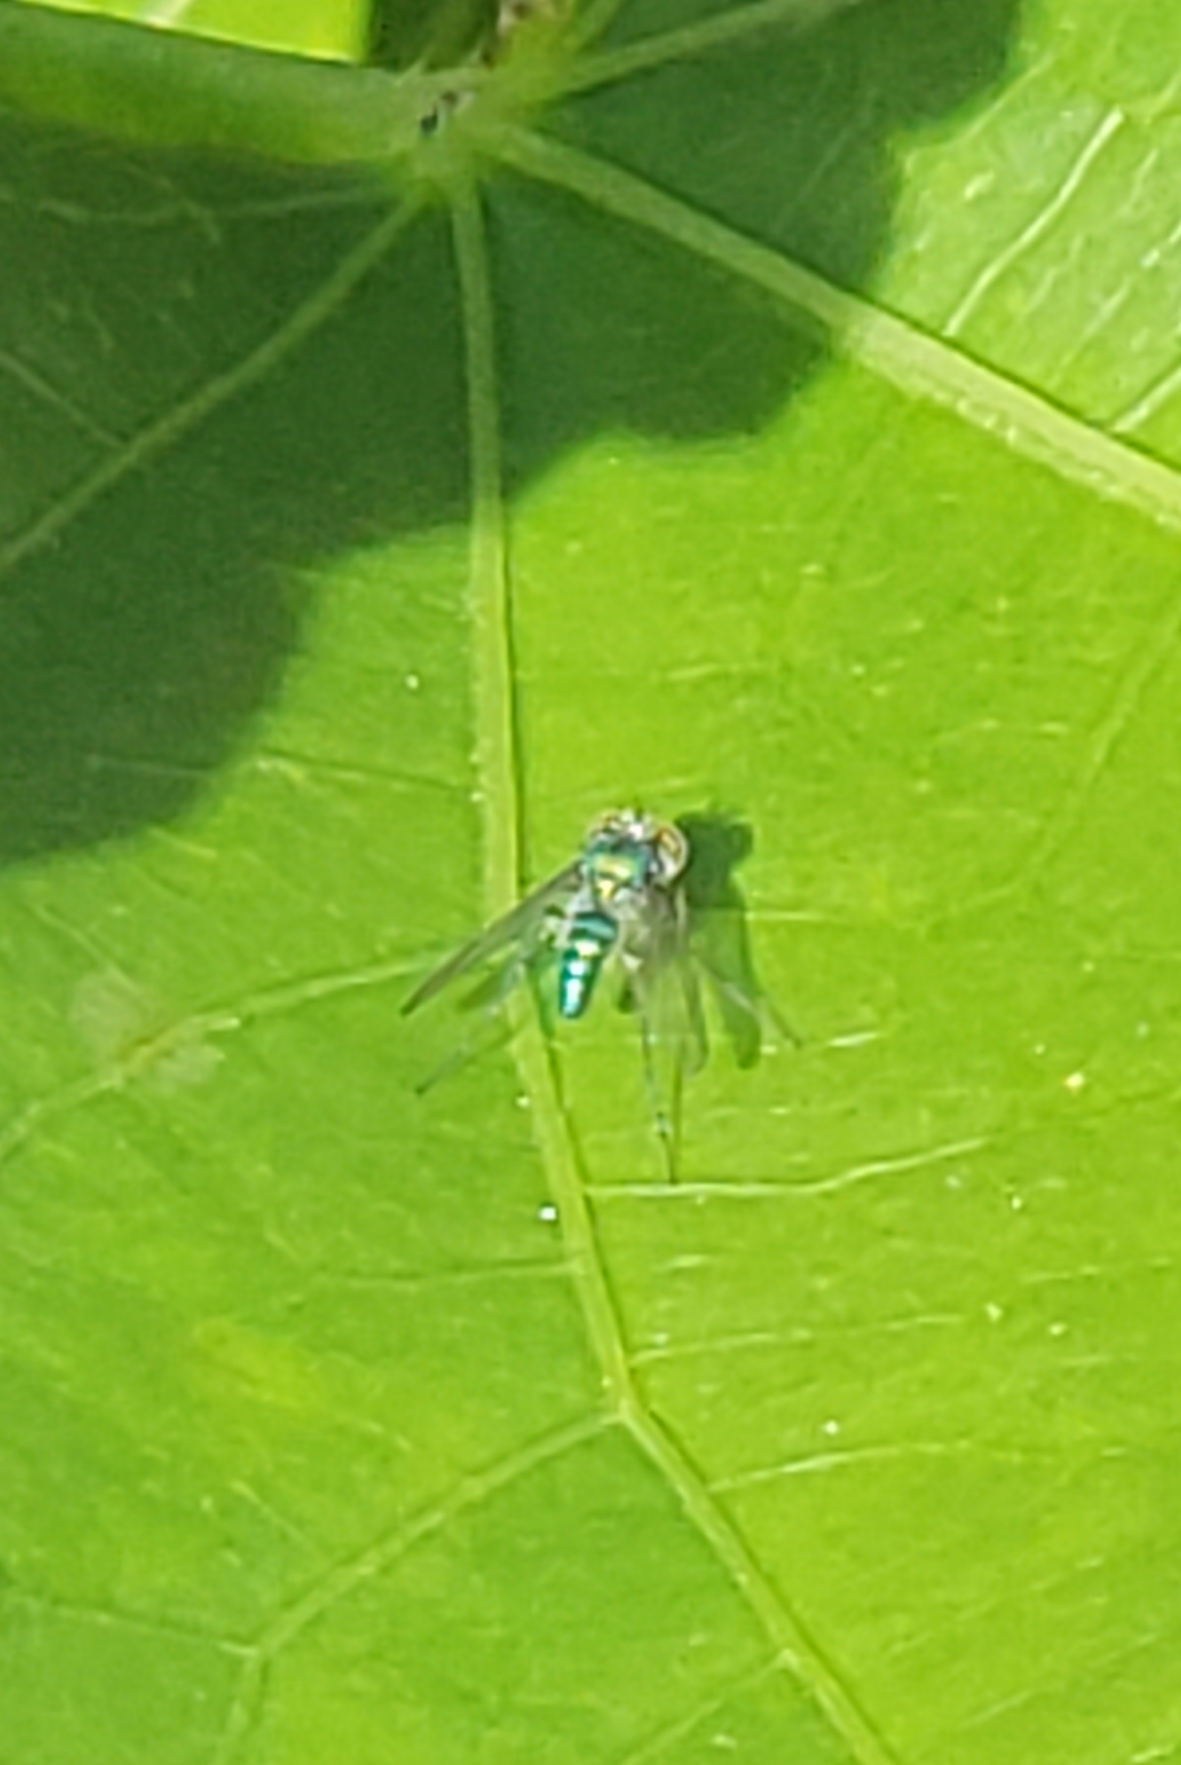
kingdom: Animalia
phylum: Arthropoda
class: Insecta
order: Diptera
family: Dolichopodidae
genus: Condylostylus
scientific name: Condylostylus purpureus
